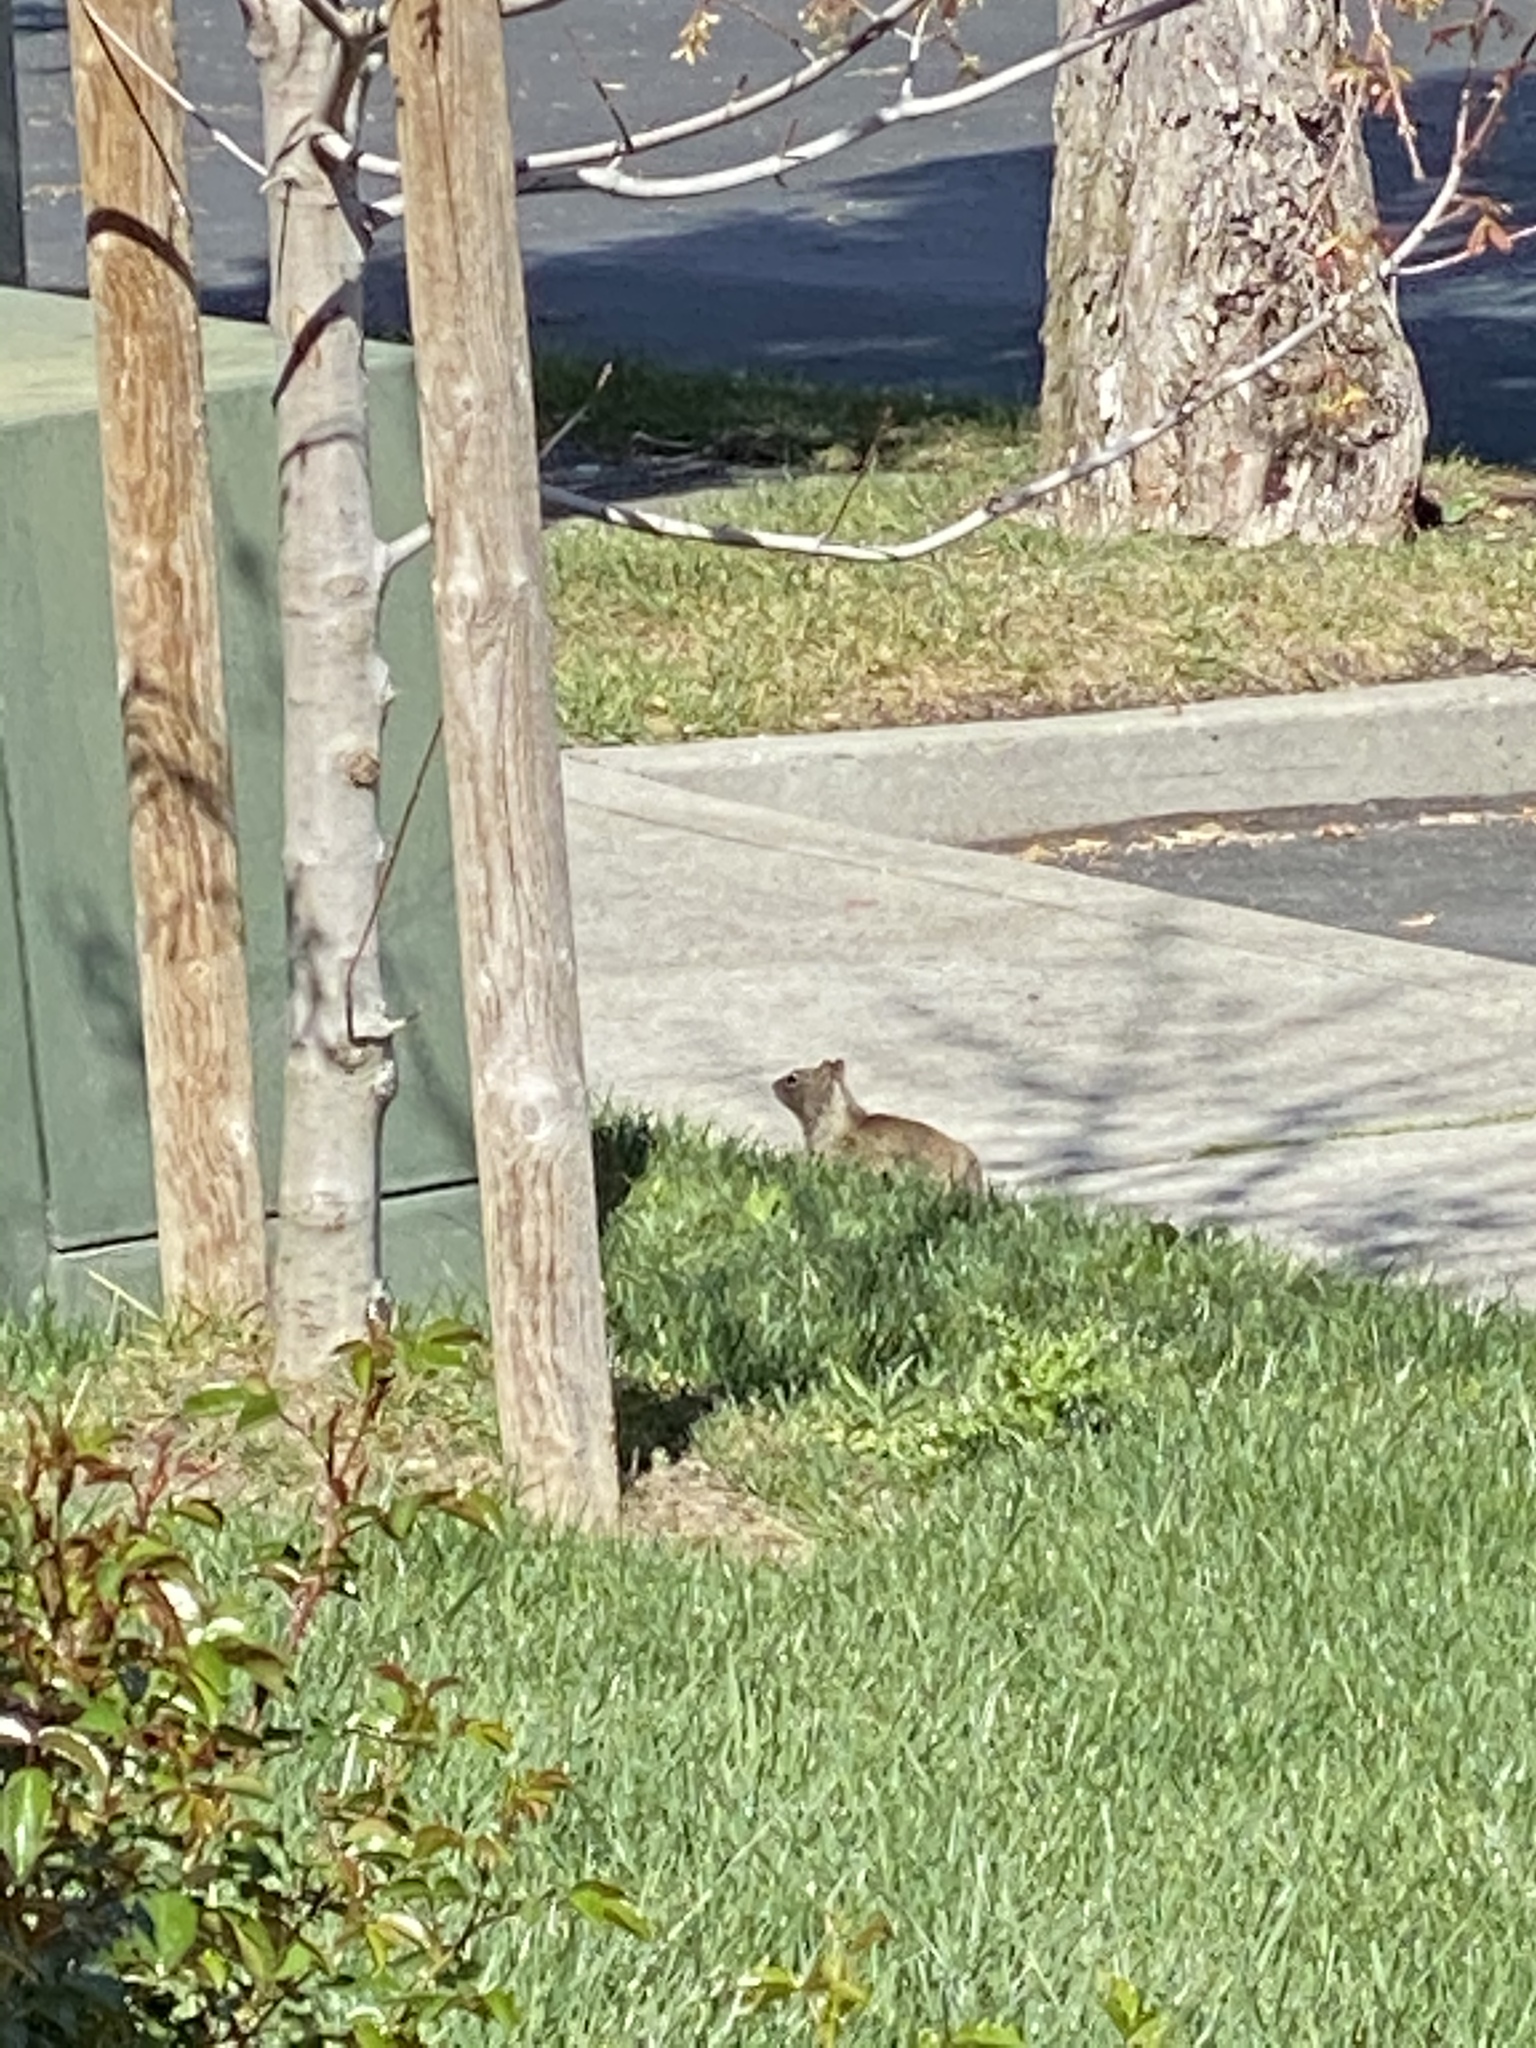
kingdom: Animalia
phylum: Chordata
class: Mammalia
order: Rodentia
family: Sciuridae
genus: Otospermophilus
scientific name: Otospermophilus beecheyi
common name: California ground squirrel
